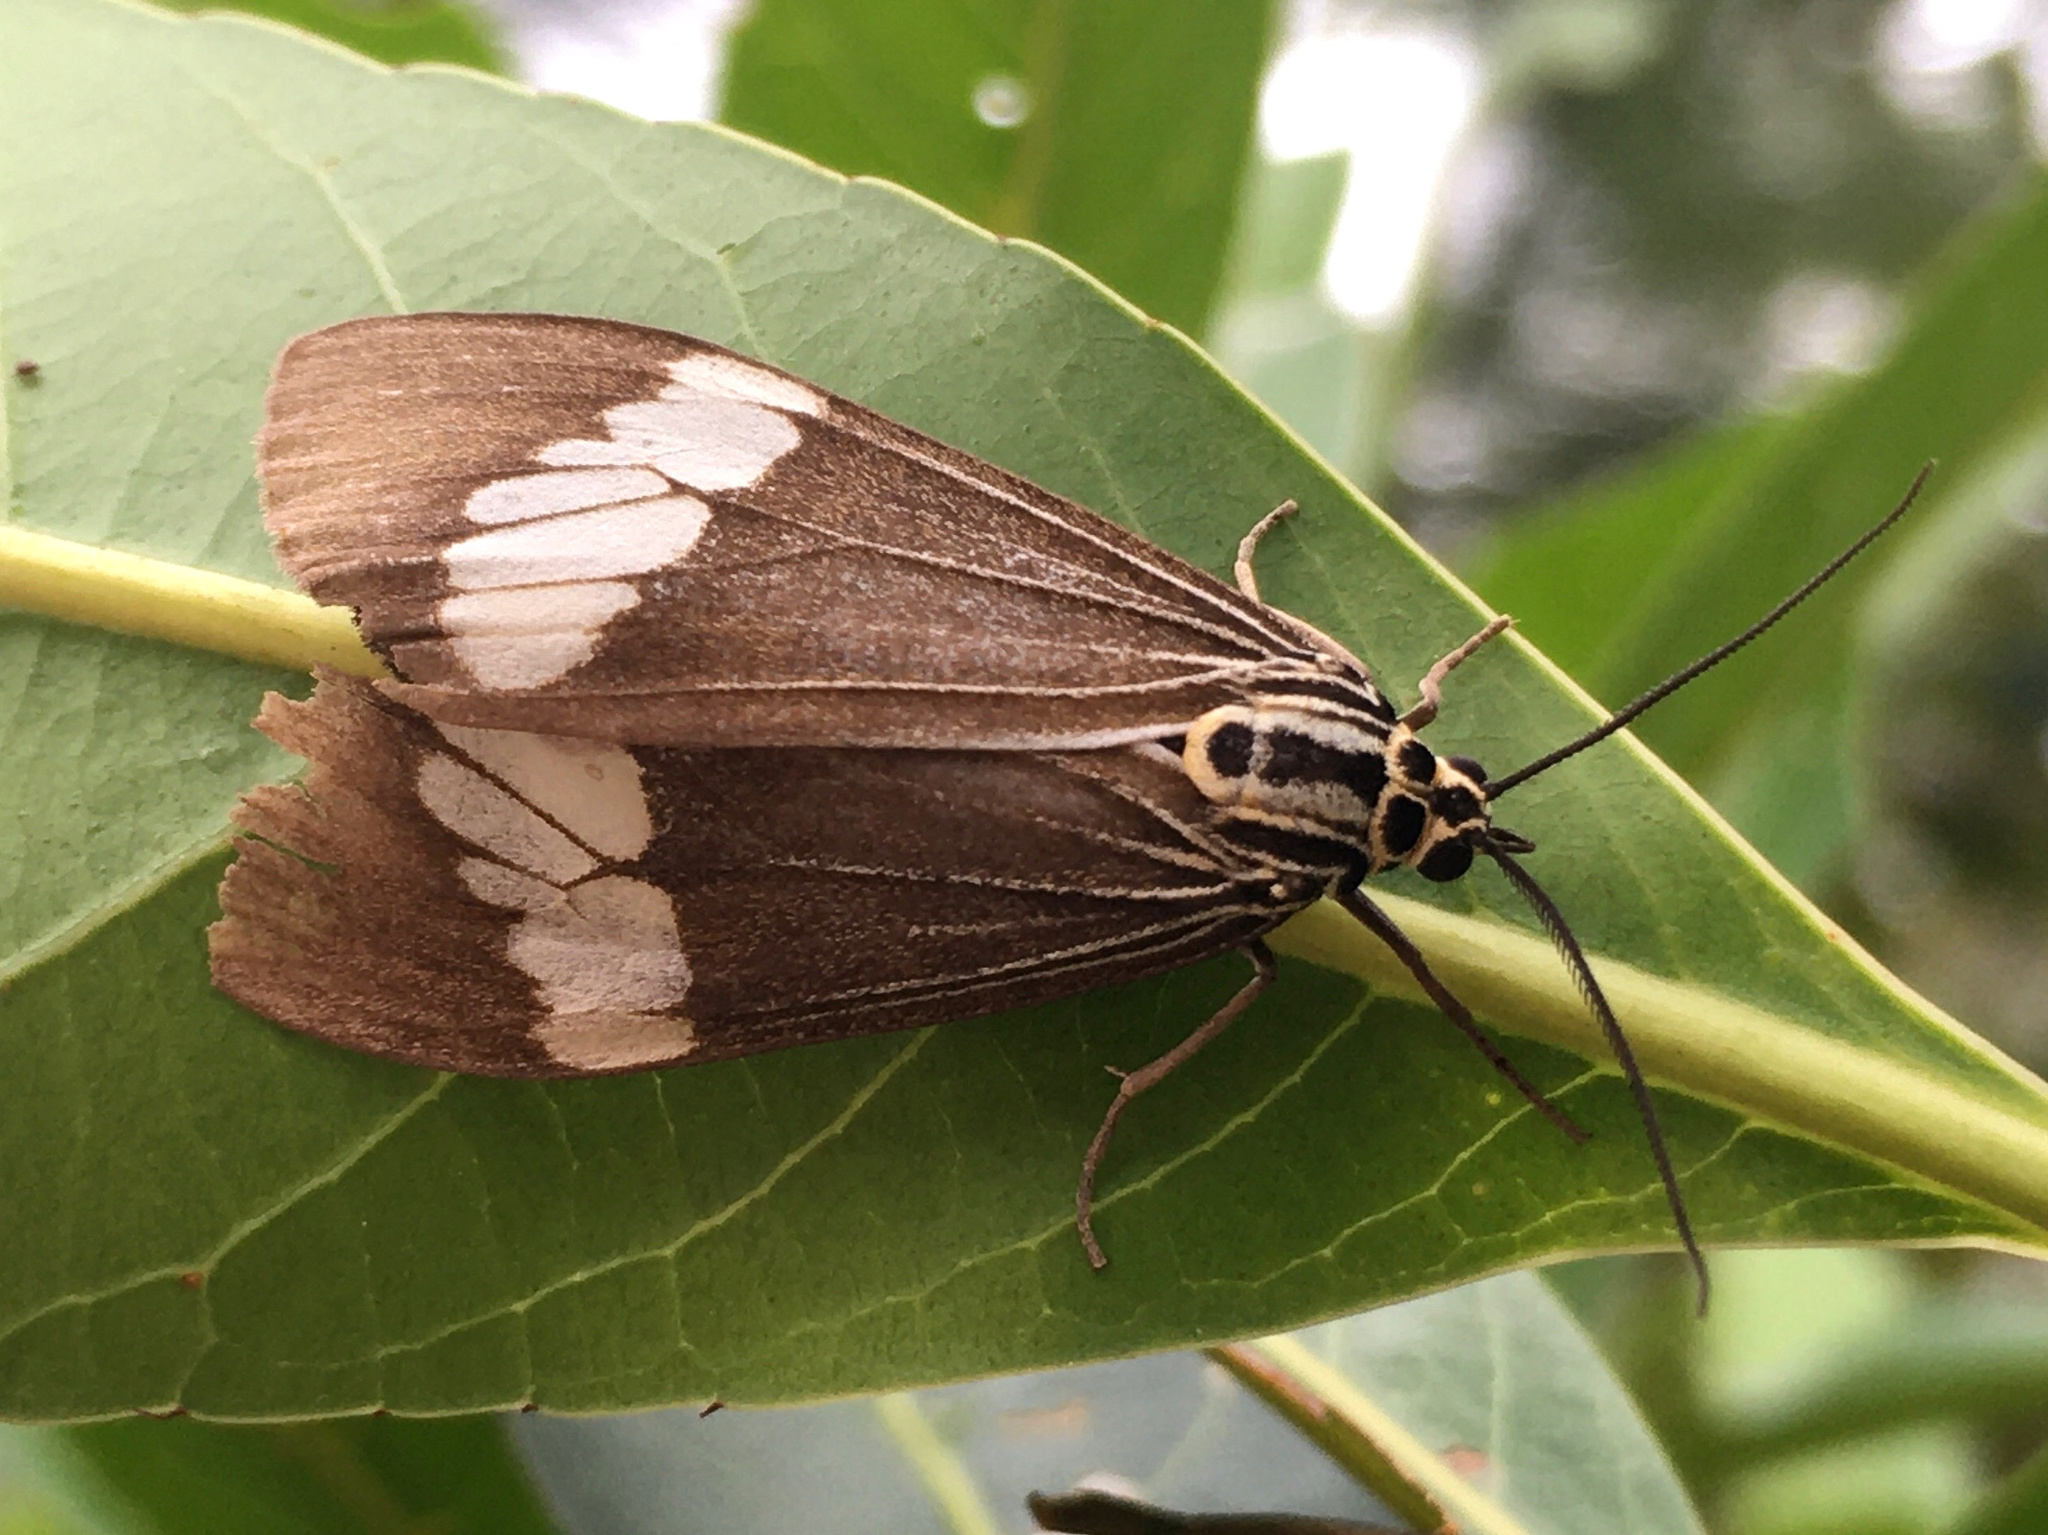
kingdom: Animalia
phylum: Arthropoda
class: Insecta
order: Lepidoptera
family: Erebidae
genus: Nyctemera
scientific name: Nyctemera baulus
